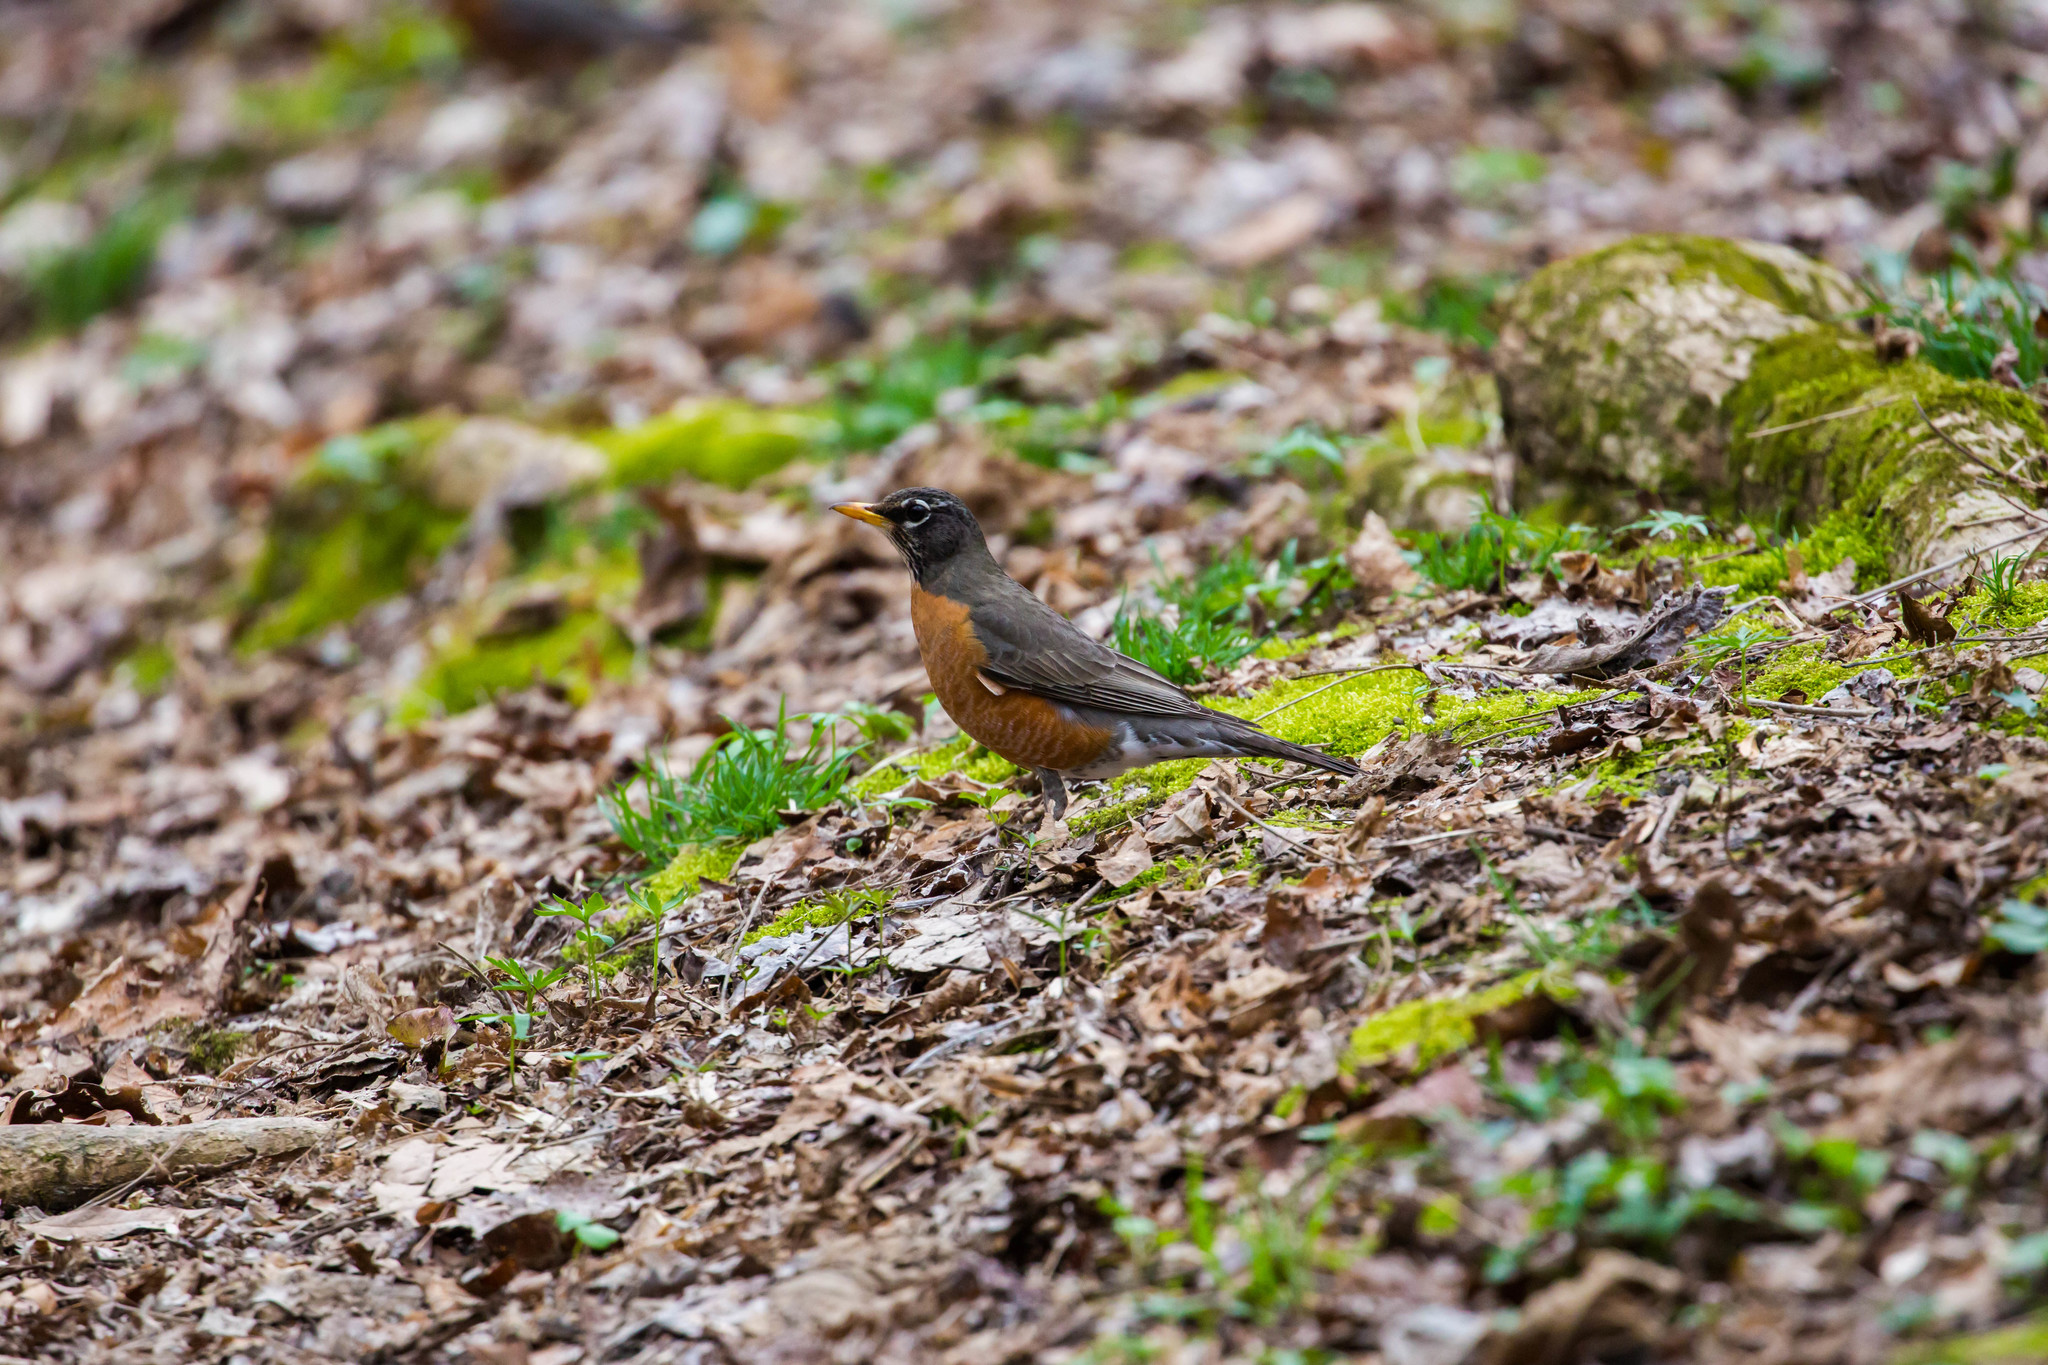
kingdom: Animalia
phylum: Chordata
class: Aves
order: Passeriformes
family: Turdidae
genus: Turdus
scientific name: Turdus migratorius
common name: American robin
